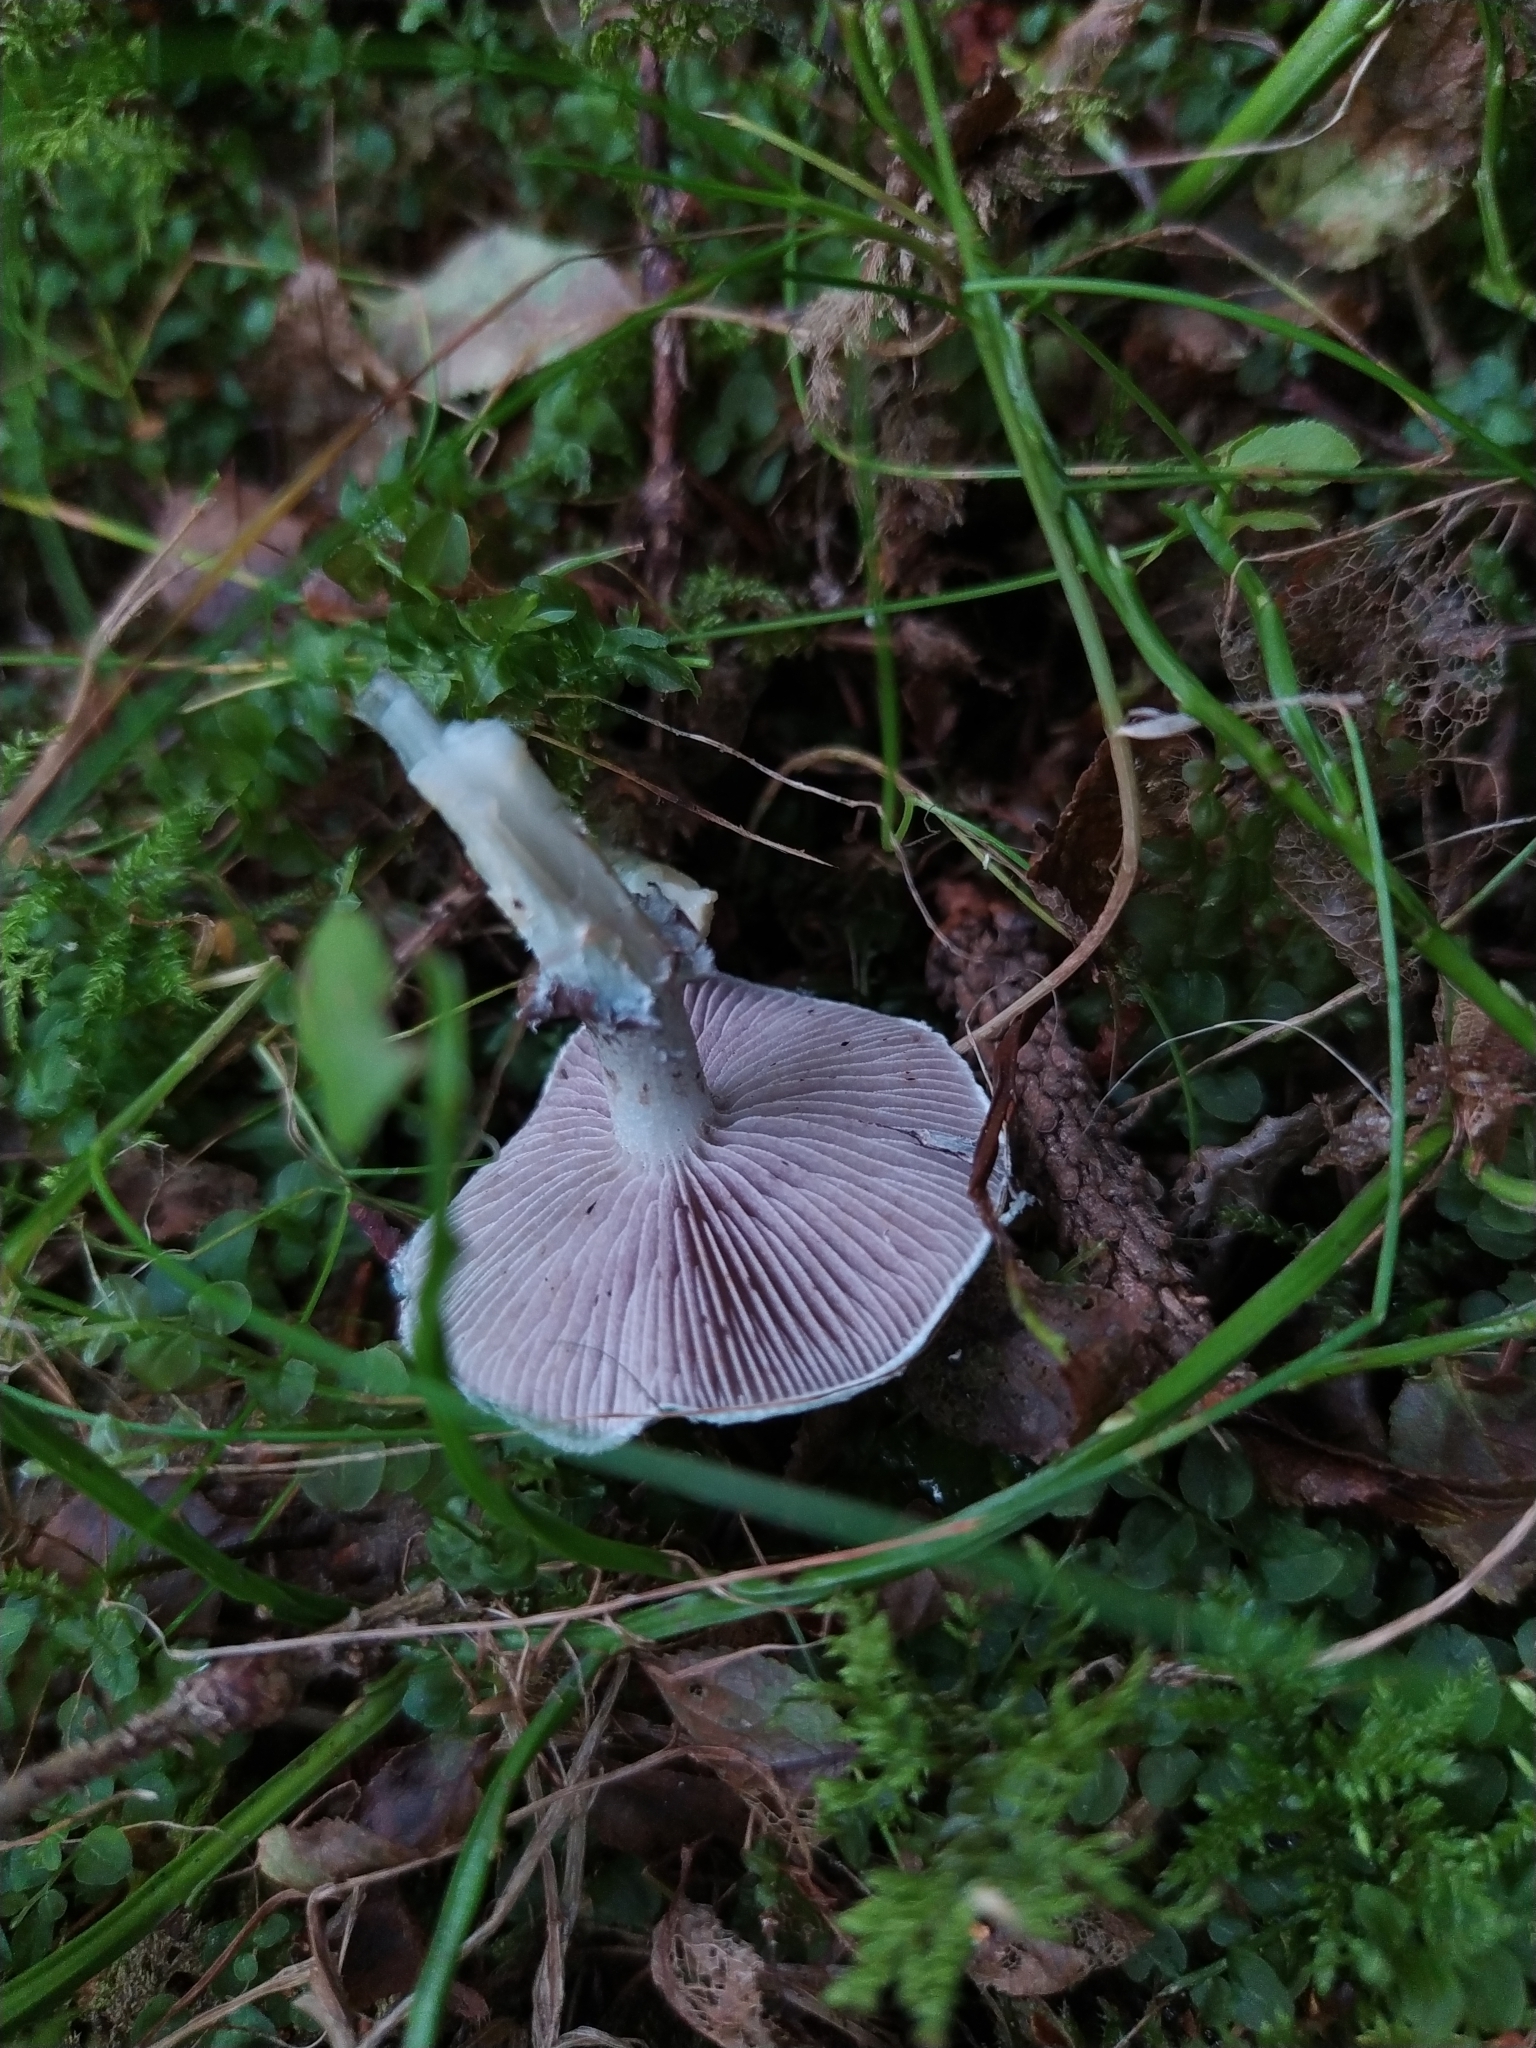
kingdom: Fungi
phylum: Basidiomycota
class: Agaricomycetes
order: Agaricales
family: Strophariaceae
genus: Stropharia
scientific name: Stropharia aeruginosa
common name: Verdigris roundhead
